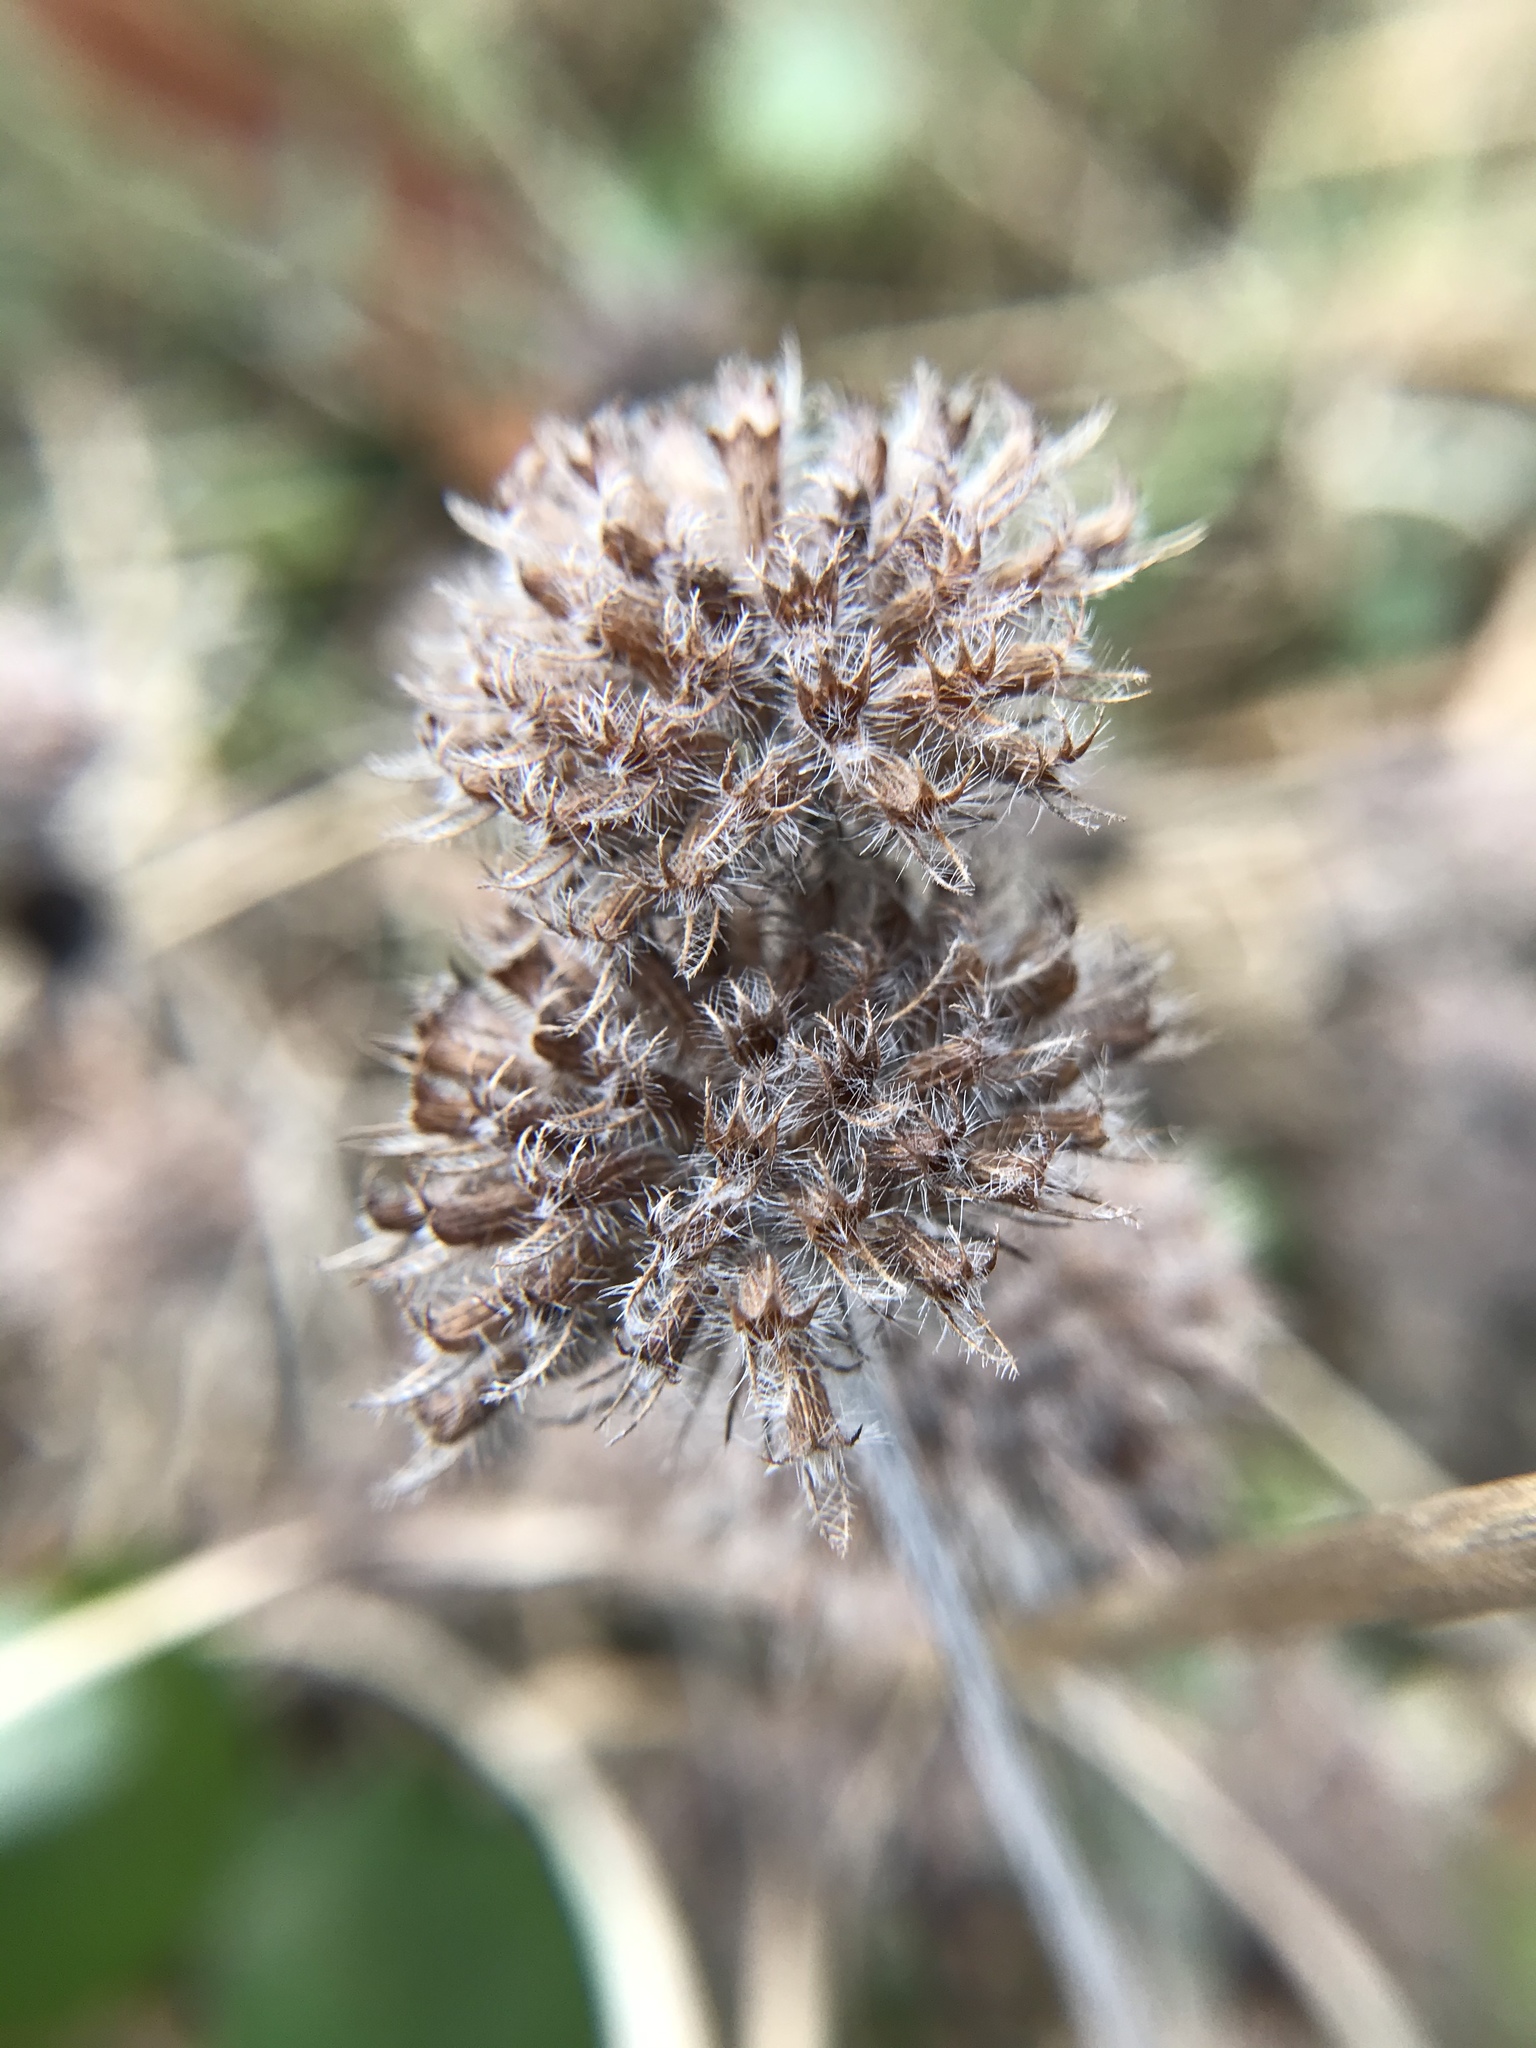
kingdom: Plantae
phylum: Tracheophyta
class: Magnoliopsida
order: Lamiales
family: Lamiaceae
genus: Clinopodium
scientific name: Clinopodium vulgare
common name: Wild basil
